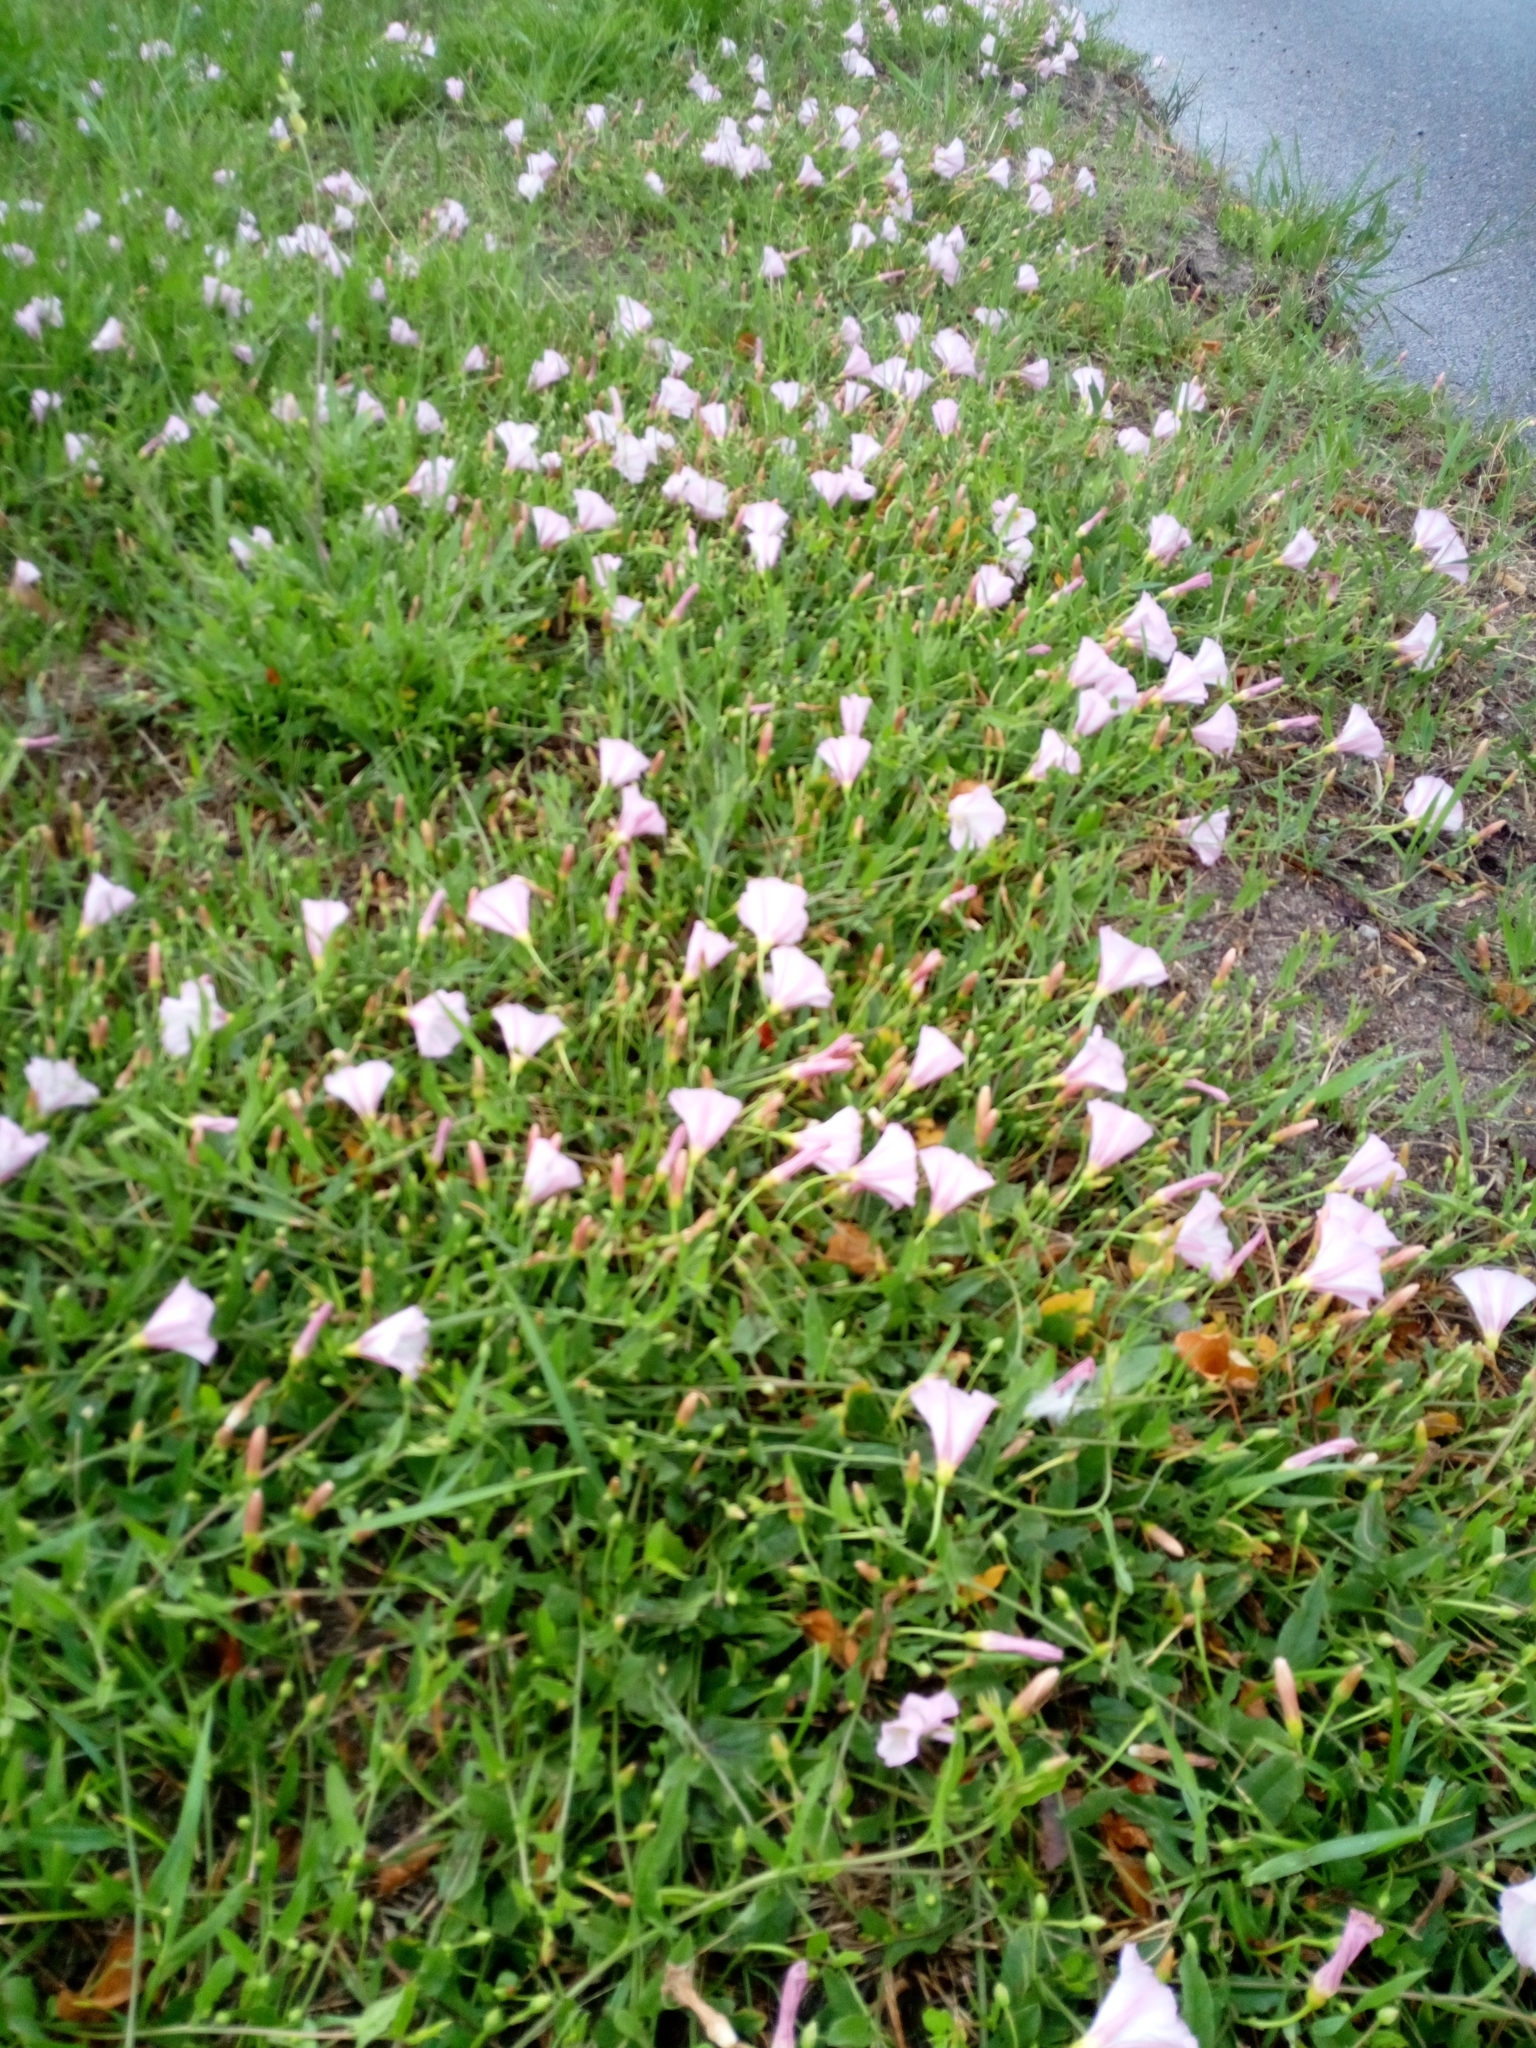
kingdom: Plantae
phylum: Tracheophyta
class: Magnoliopsida
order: Solanales
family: Convolvulaceae
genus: Convolvulus
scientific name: Convolvulus arvensis
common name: Field bindweed
